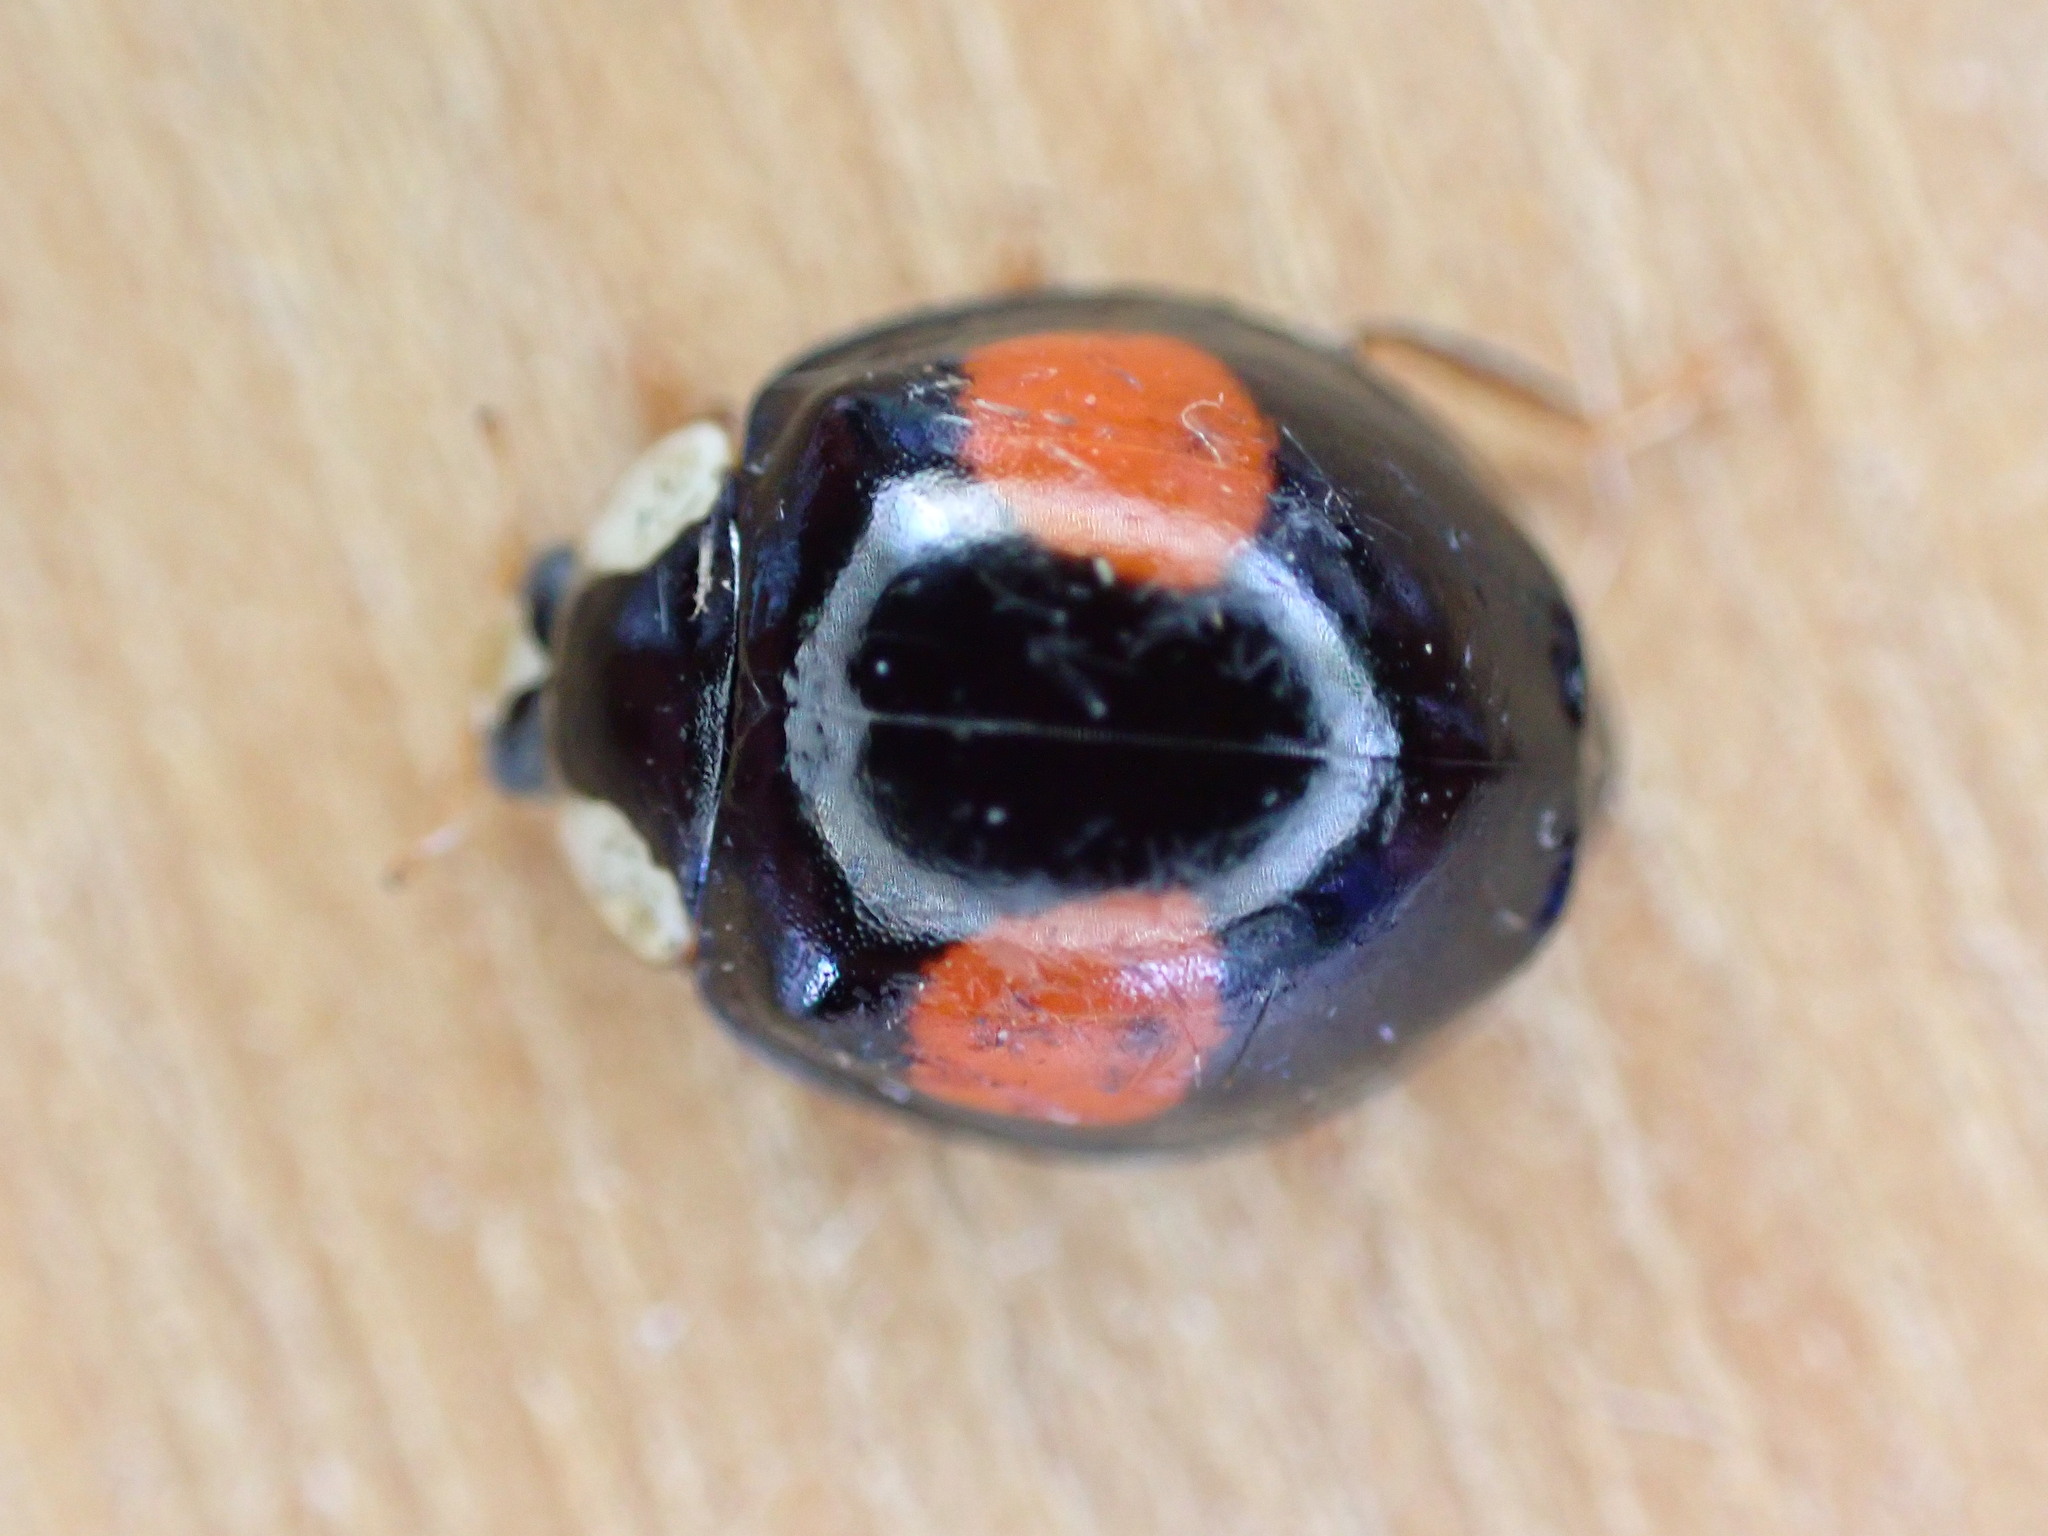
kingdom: Animalia
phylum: Arthropoda
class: Insecta
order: Coleoptera
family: Coccinellidae
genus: Harmonia
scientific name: Harmonia axyridis
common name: Harlequin ladybird
